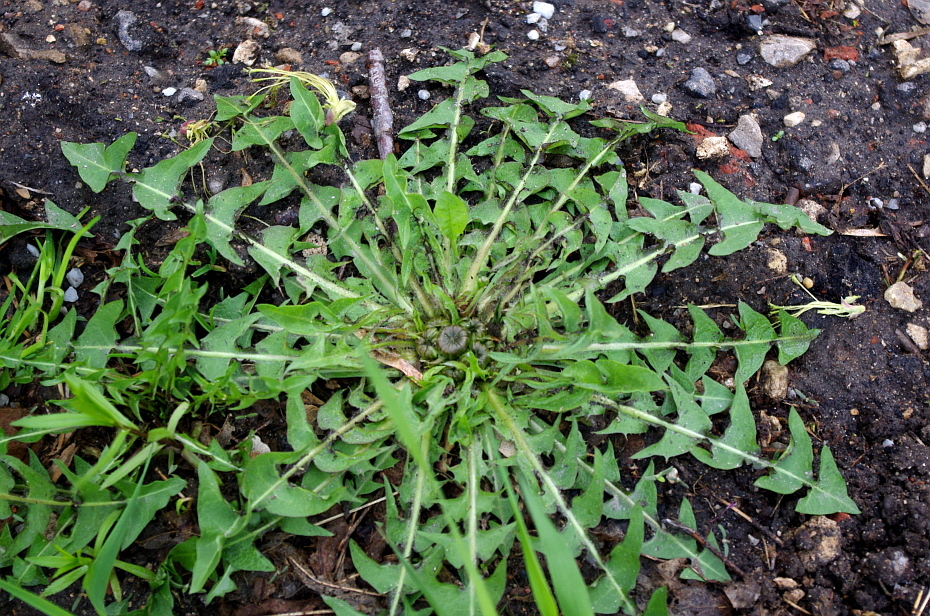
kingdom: Plantae
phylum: Tracheophyta
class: Magnoliopsida
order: Asterales
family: Asteraceae
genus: Taraxacum
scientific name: Taraxacum officinale
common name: Common dandelion
